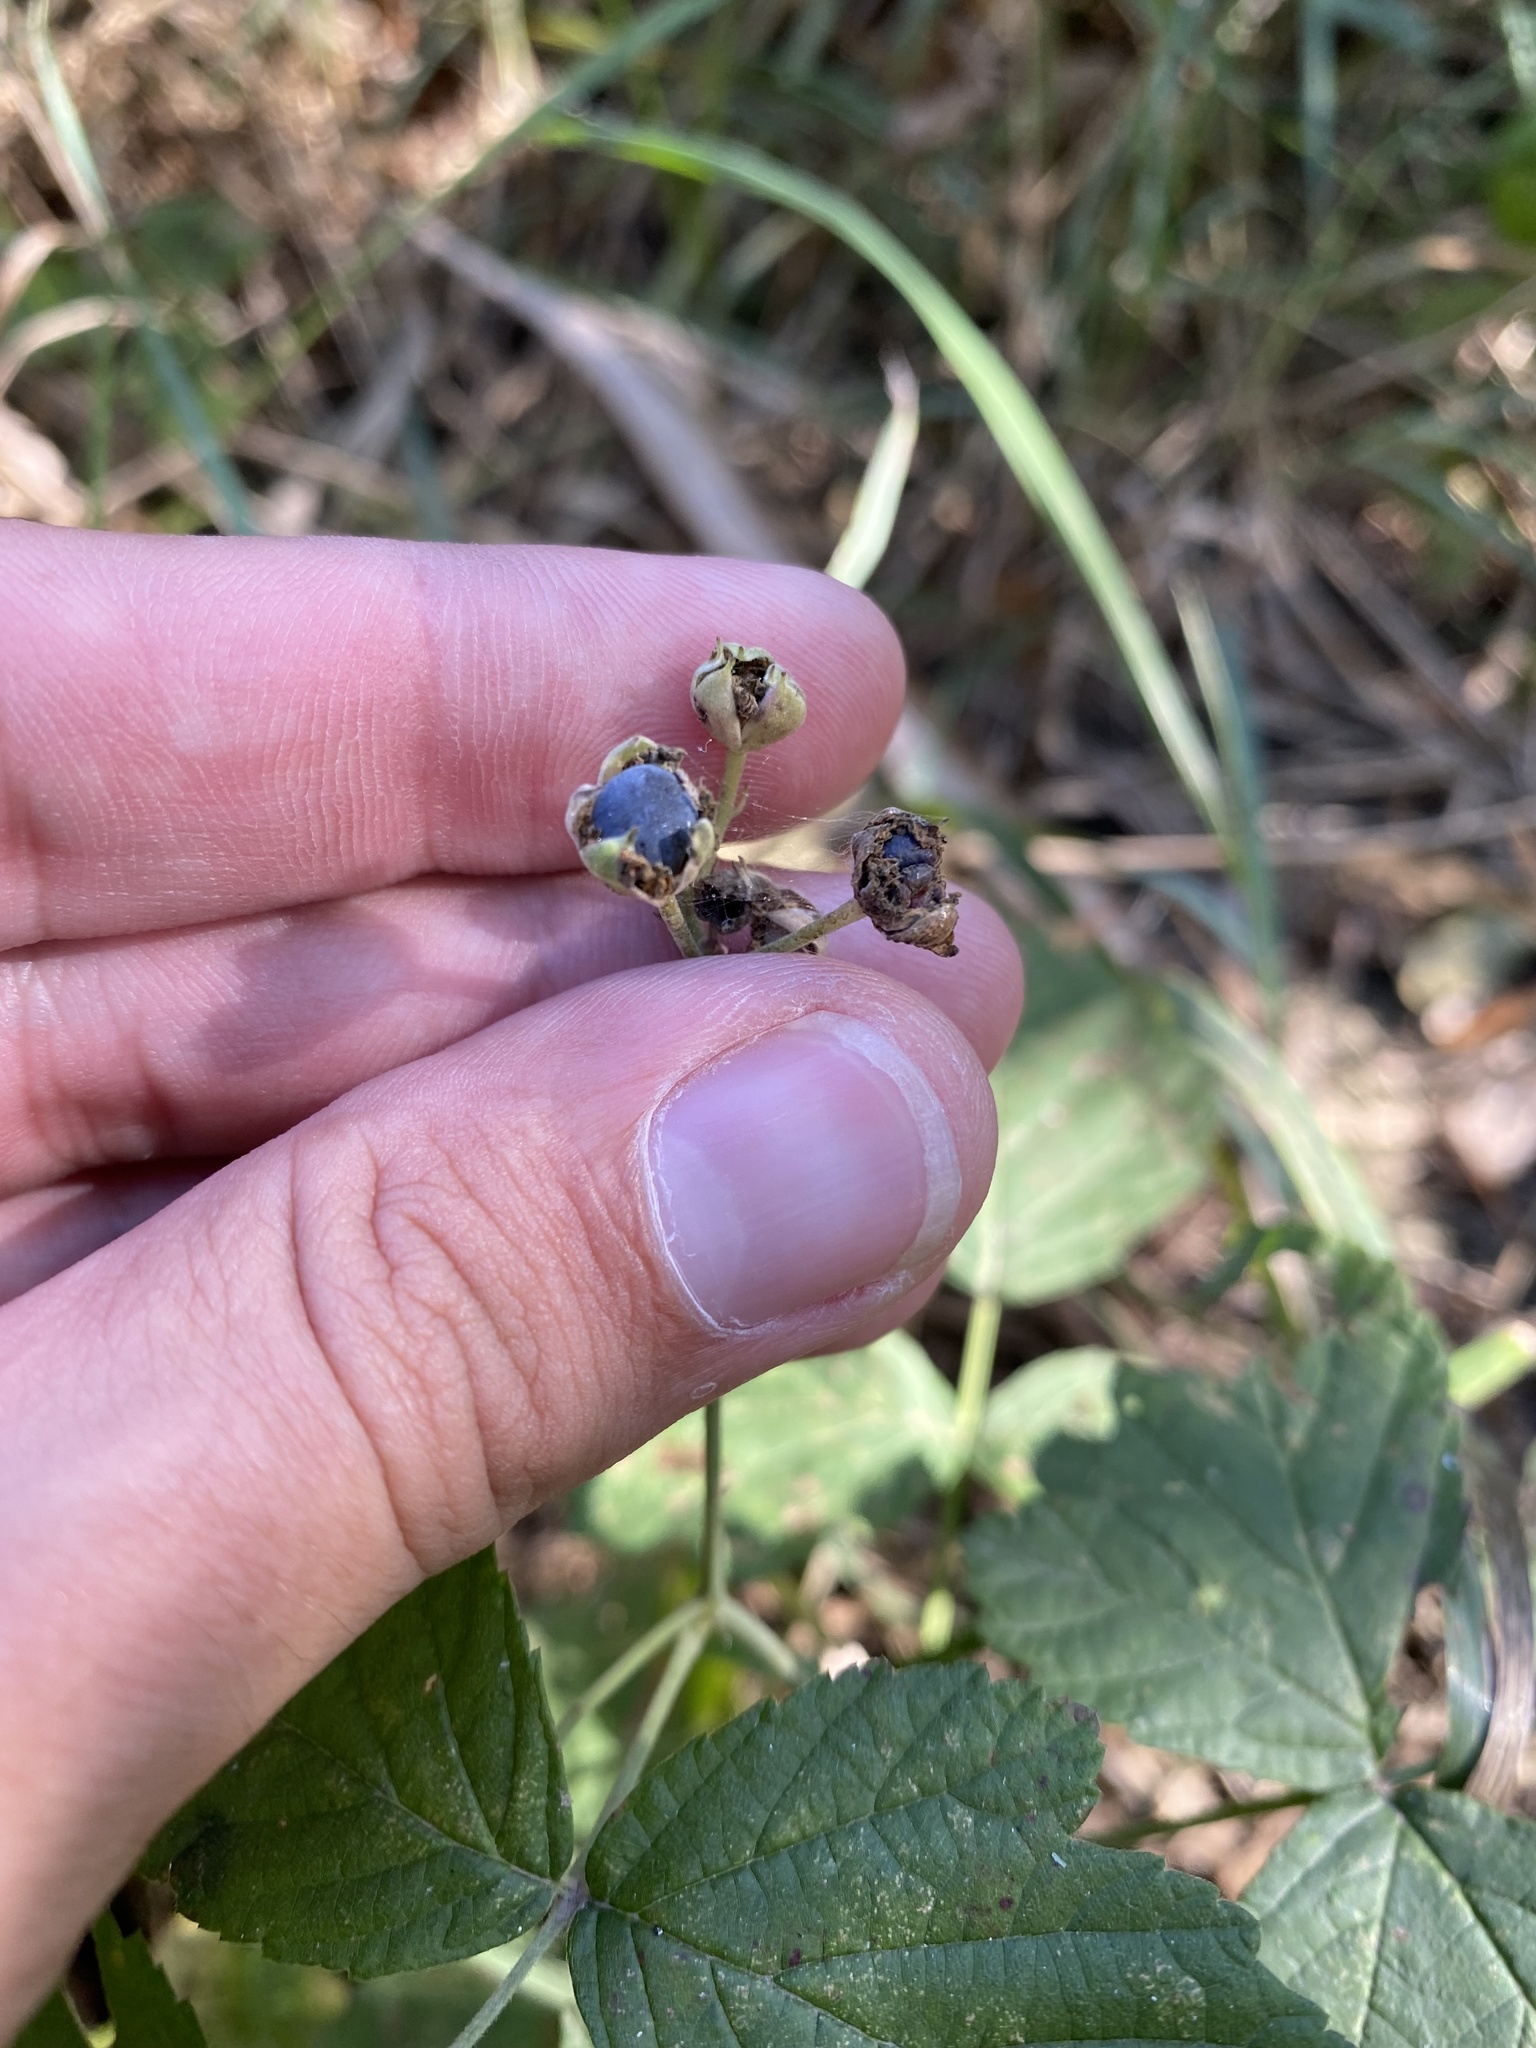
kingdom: Plantae
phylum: Tracheophyta
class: Magnoliopsida
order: Rosales
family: Rosaceae
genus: Rubus
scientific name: Rubus caesius
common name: Dewberry
